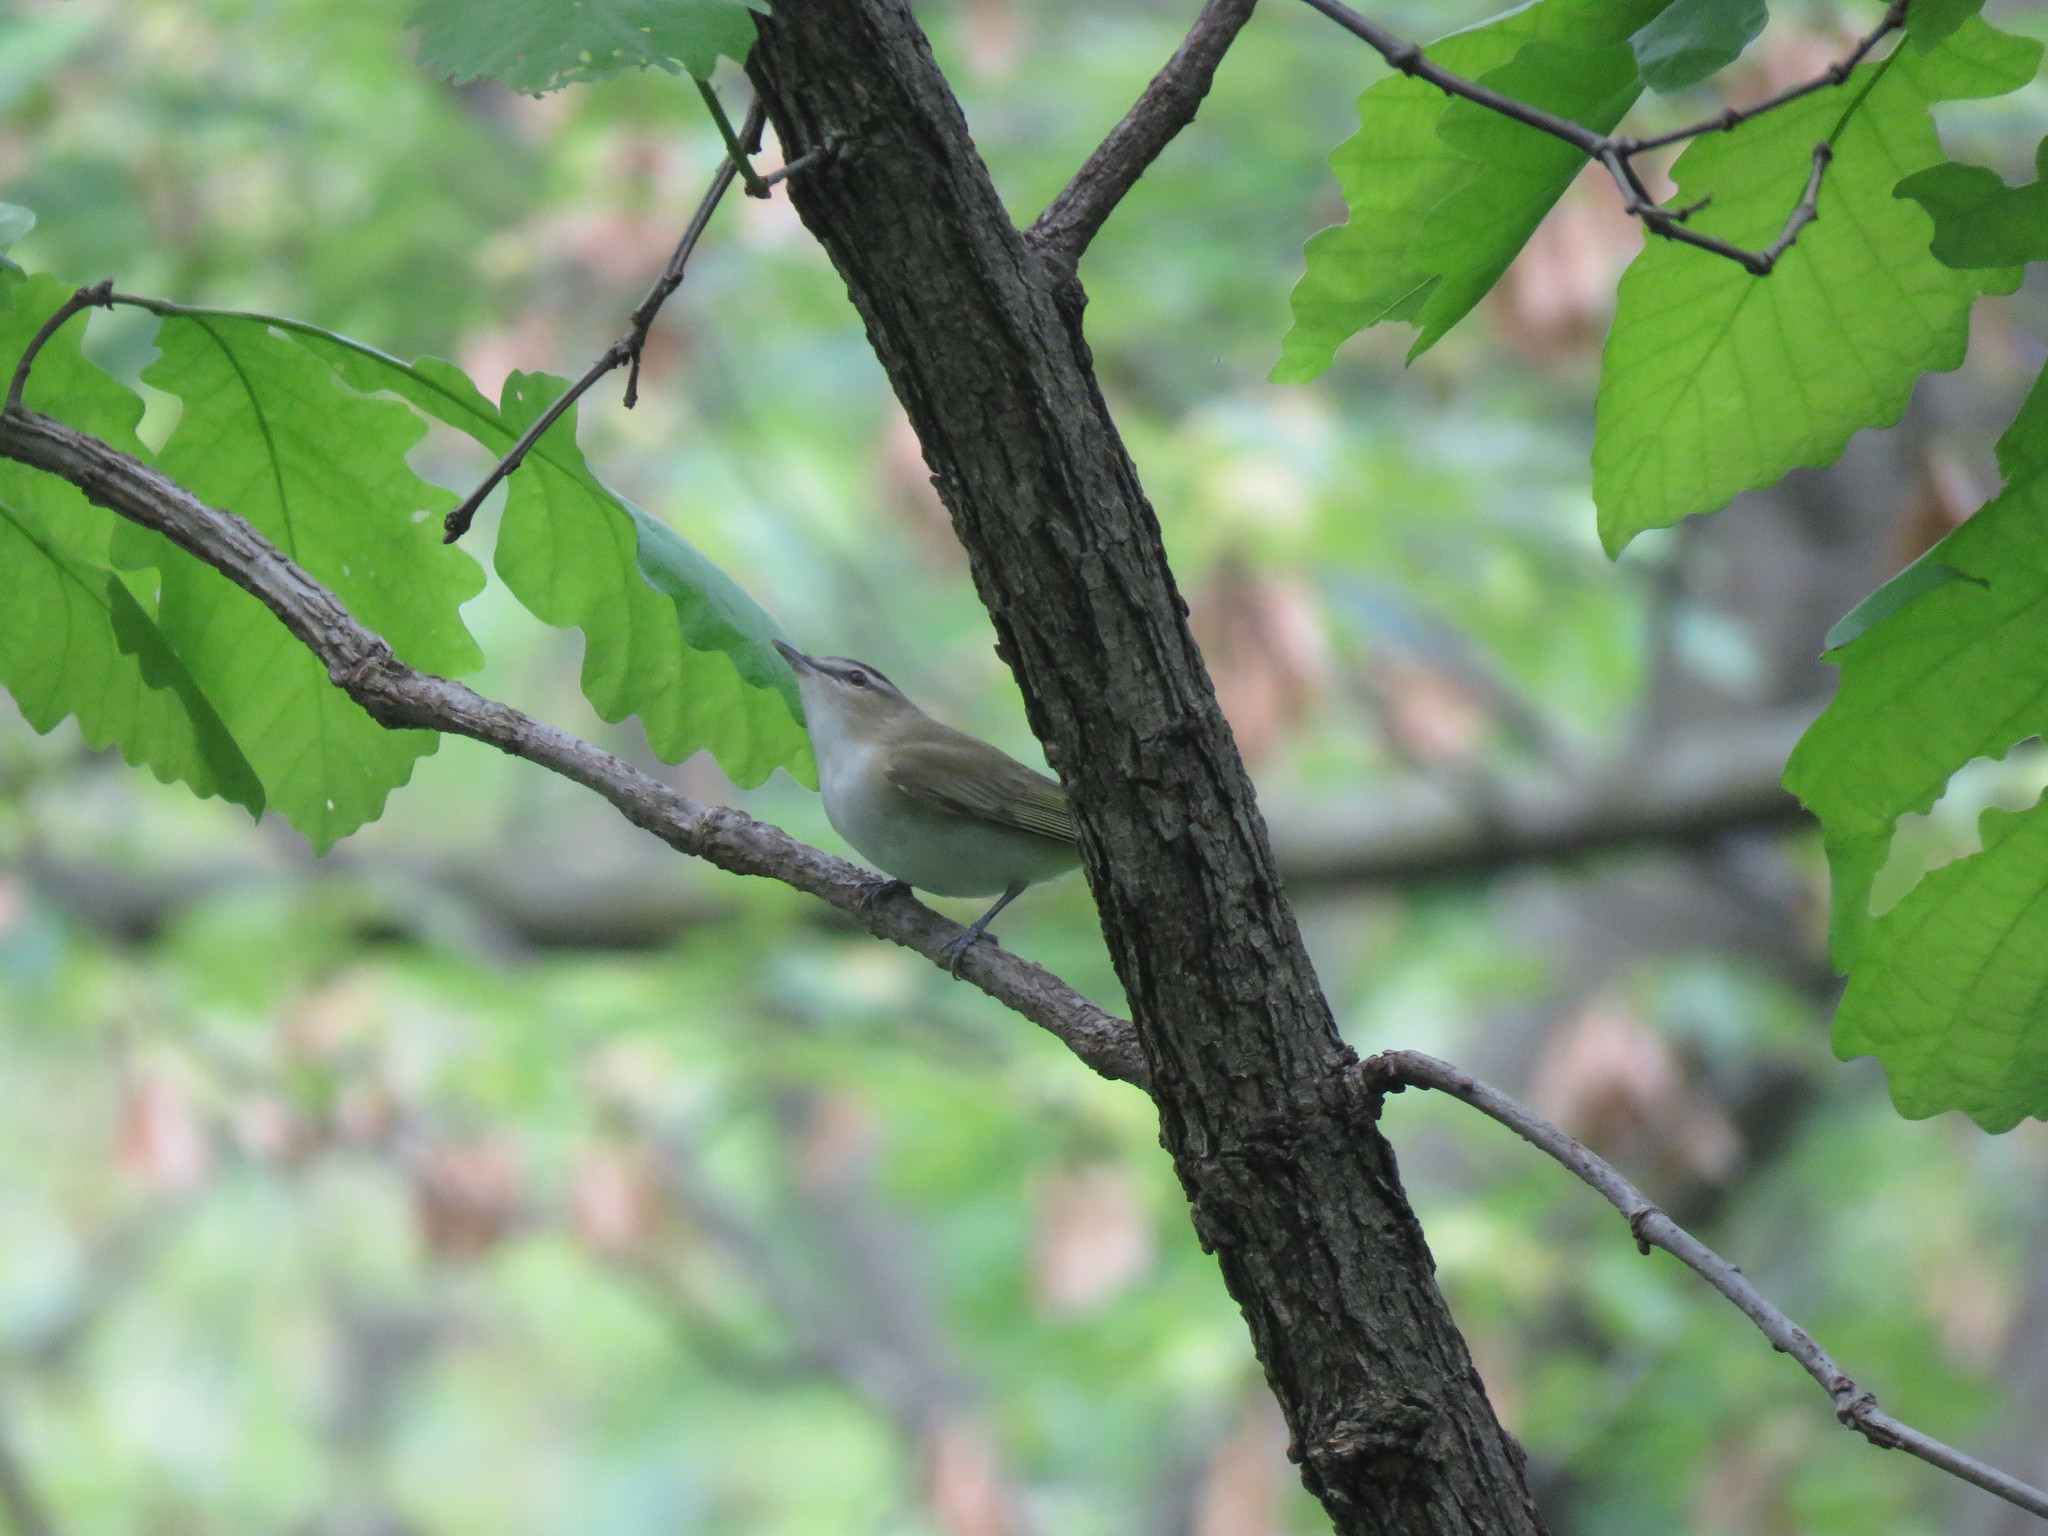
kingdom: Animalia
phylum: Chordata
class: Aves
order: Passeriformes
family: Vireonidae
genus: Vireo
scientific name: Vireo olivaceus
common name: Red-eyed vireo
